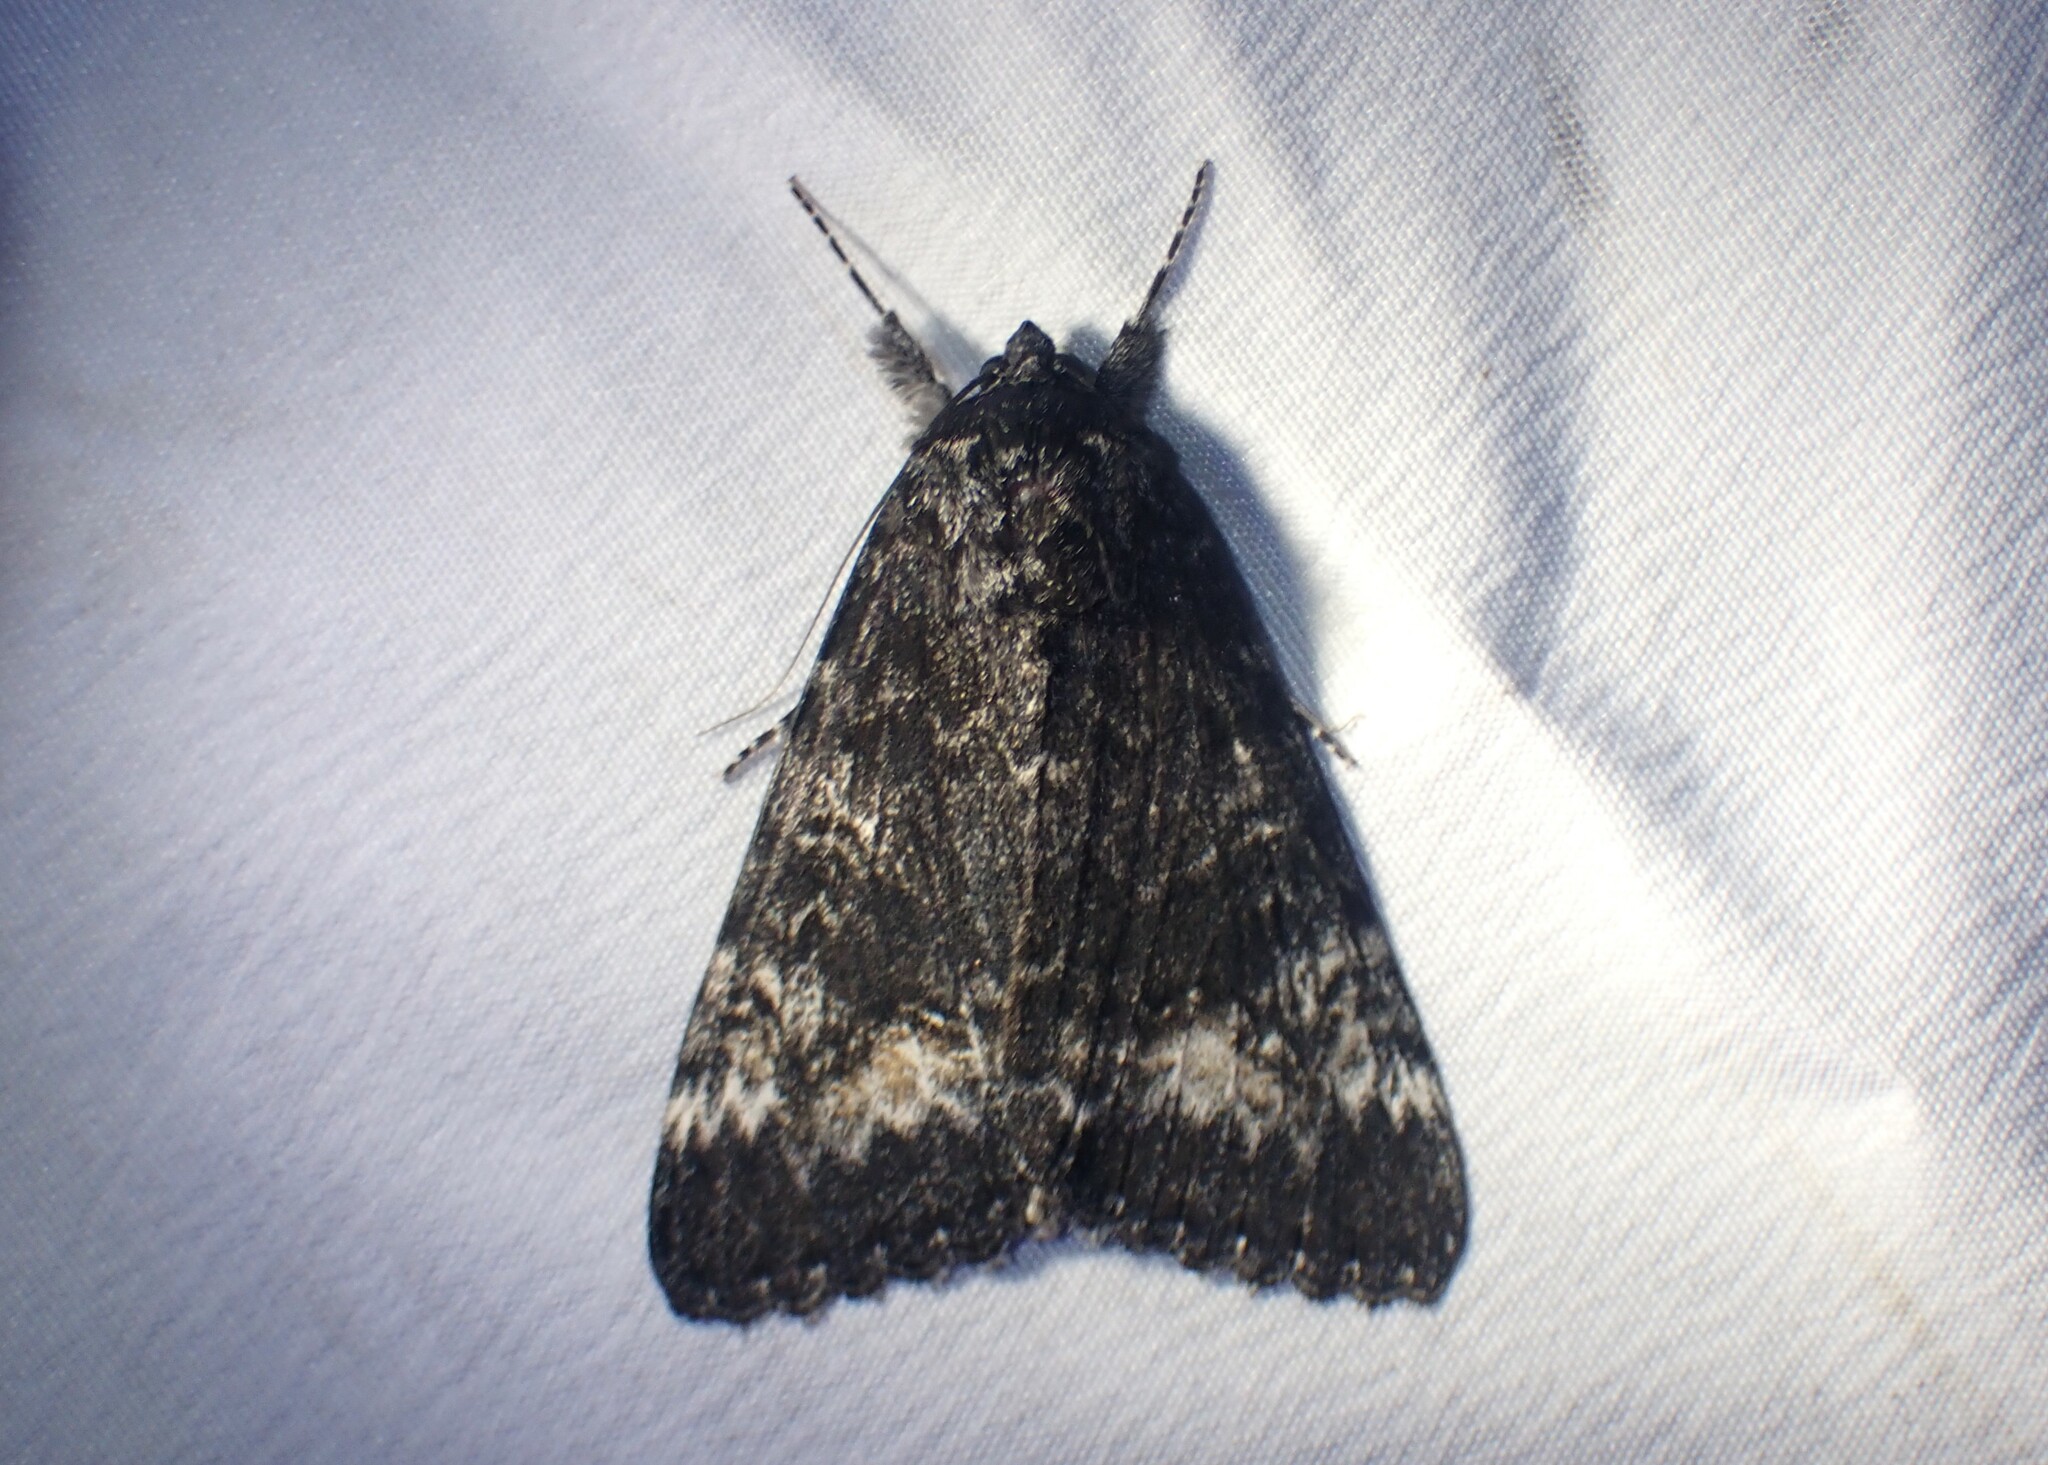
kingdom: Animalia
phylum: Arthropoda
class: Insecta
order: Lepidoptera
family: Erebidae
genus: Catocala
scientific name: Catocala briseis
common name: Briseis underwing
